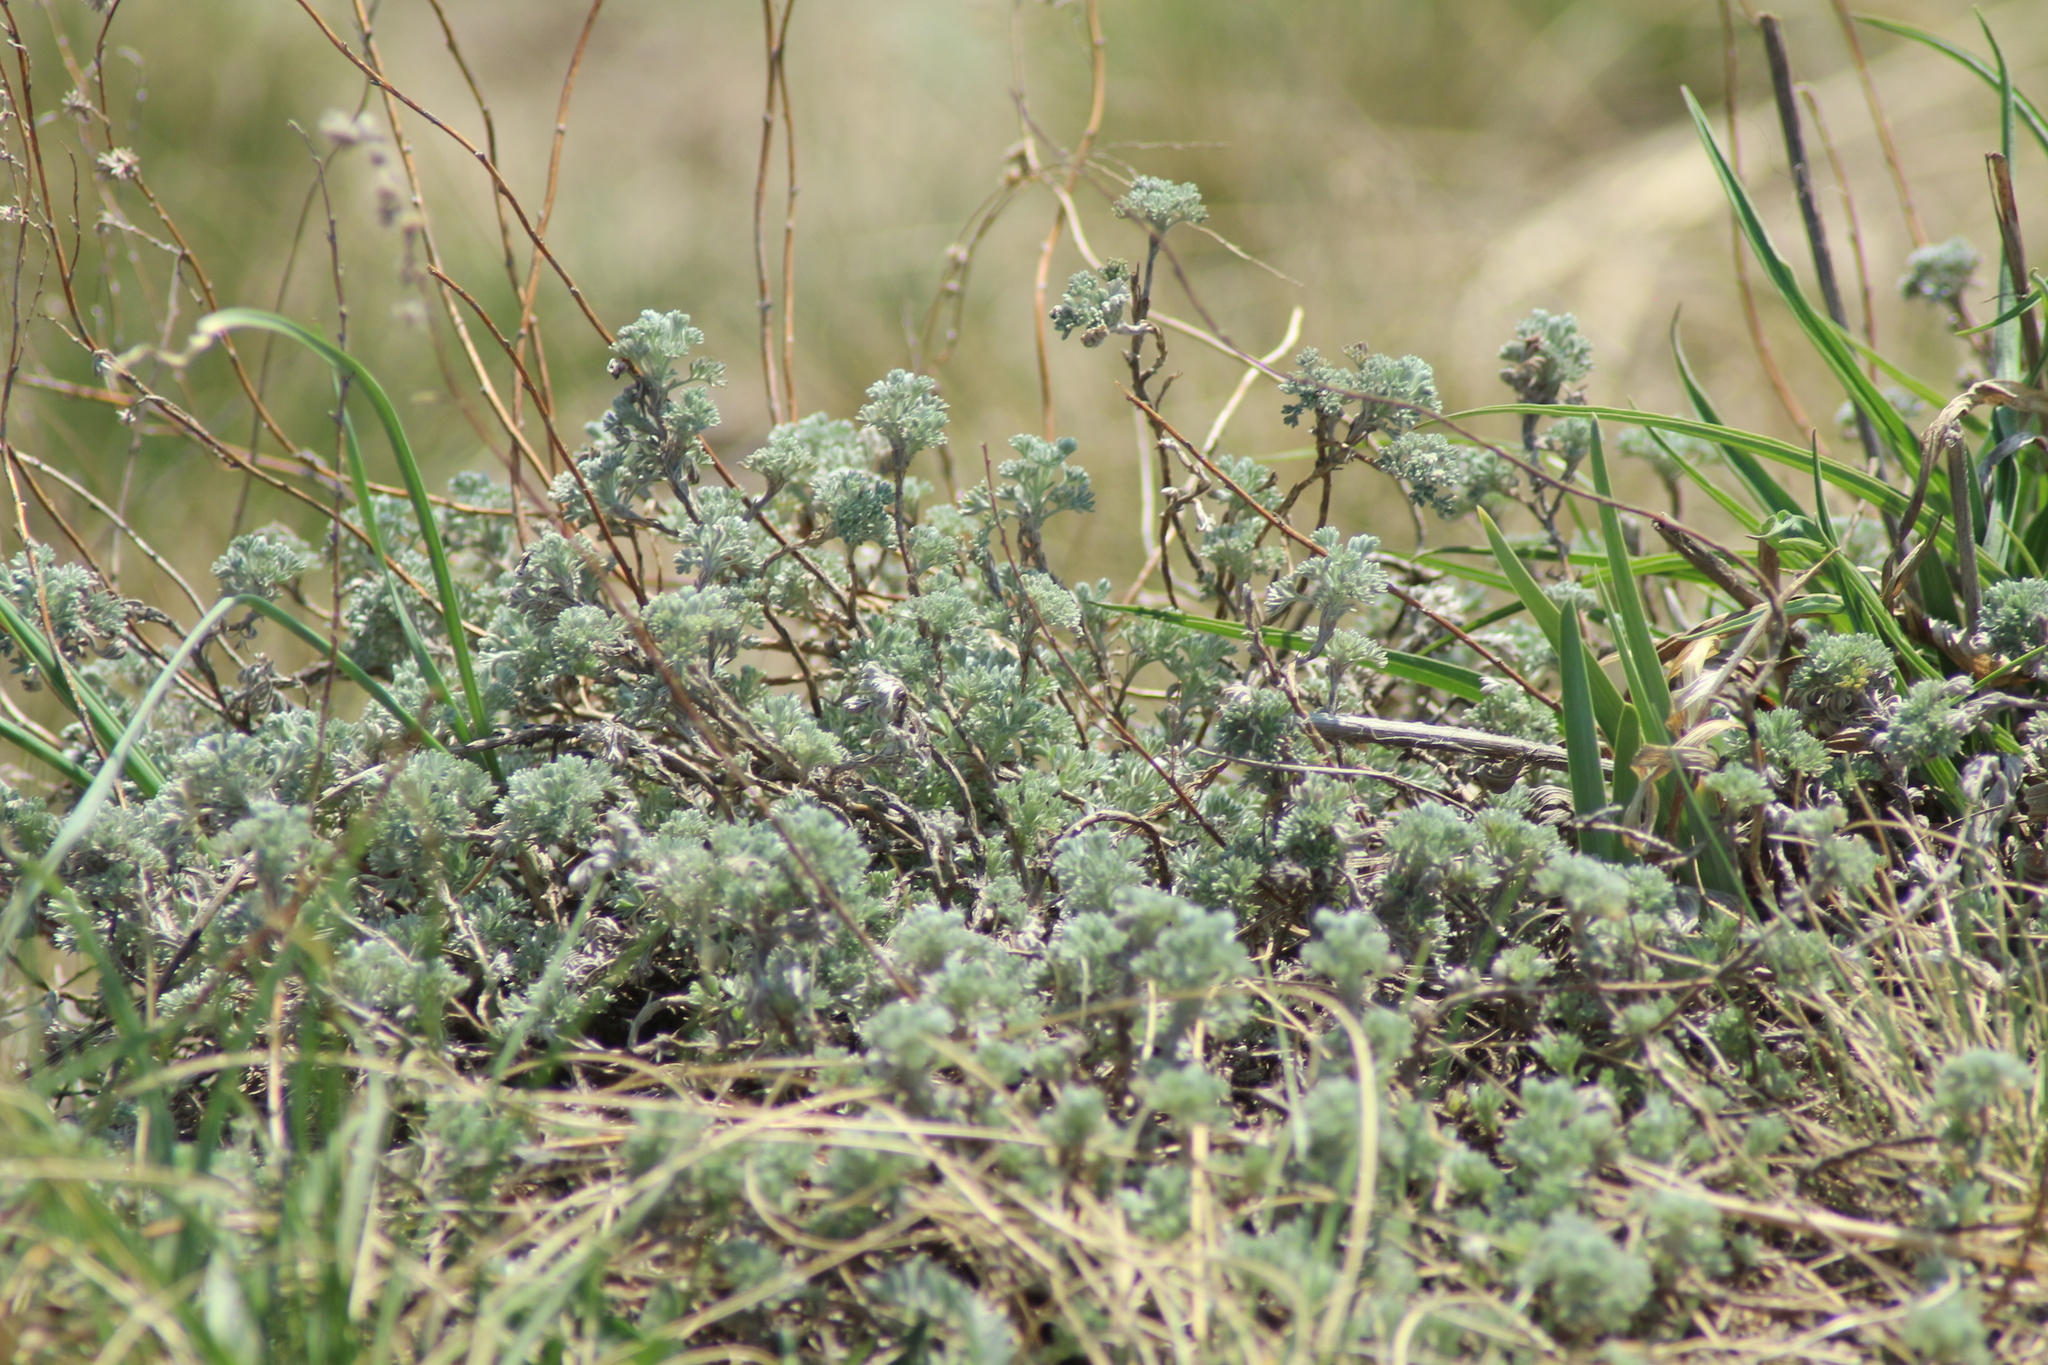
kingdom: Plantae
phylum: Tracheophyta
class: Magnoliopsida
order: Asterales
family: Asteraceae
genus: Artemisia
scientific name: Artemisia frigida
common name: Prairie sagewort
